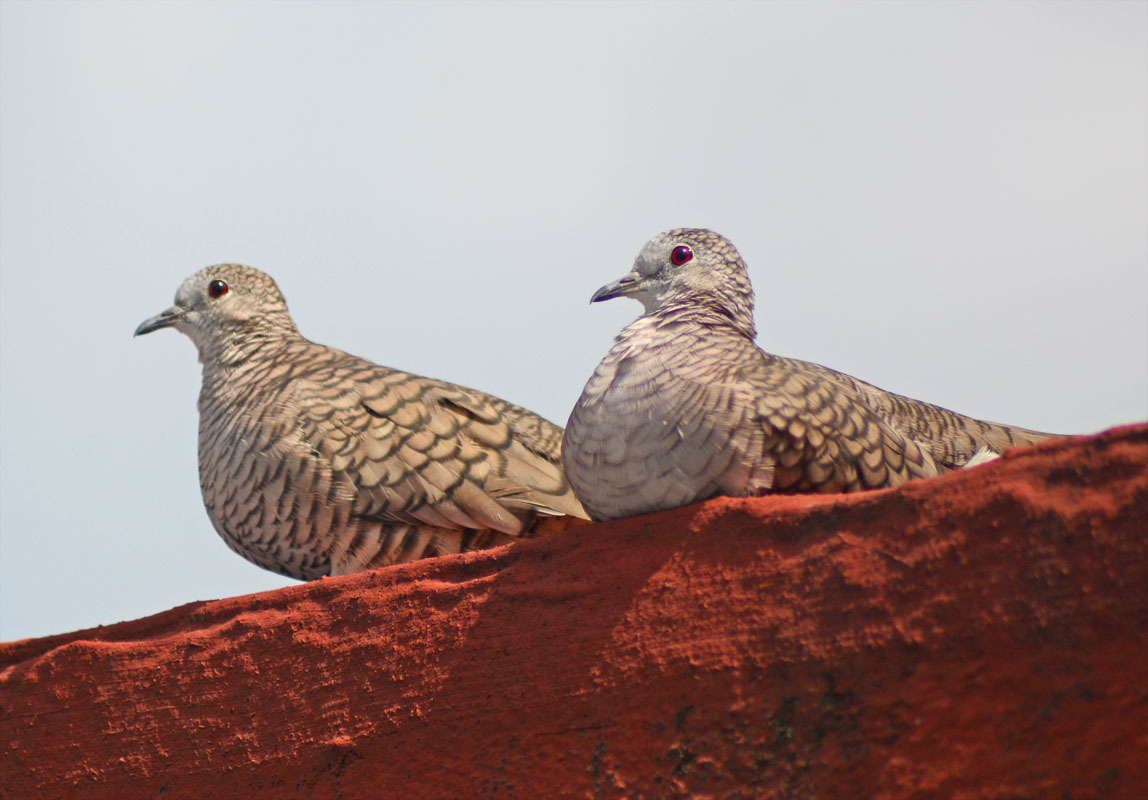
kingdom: Animalia
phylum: Chordata
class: Aves
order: Columbiformes
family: Columbidae
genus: Columbina
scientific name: Columbina inca
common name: Inca dove
